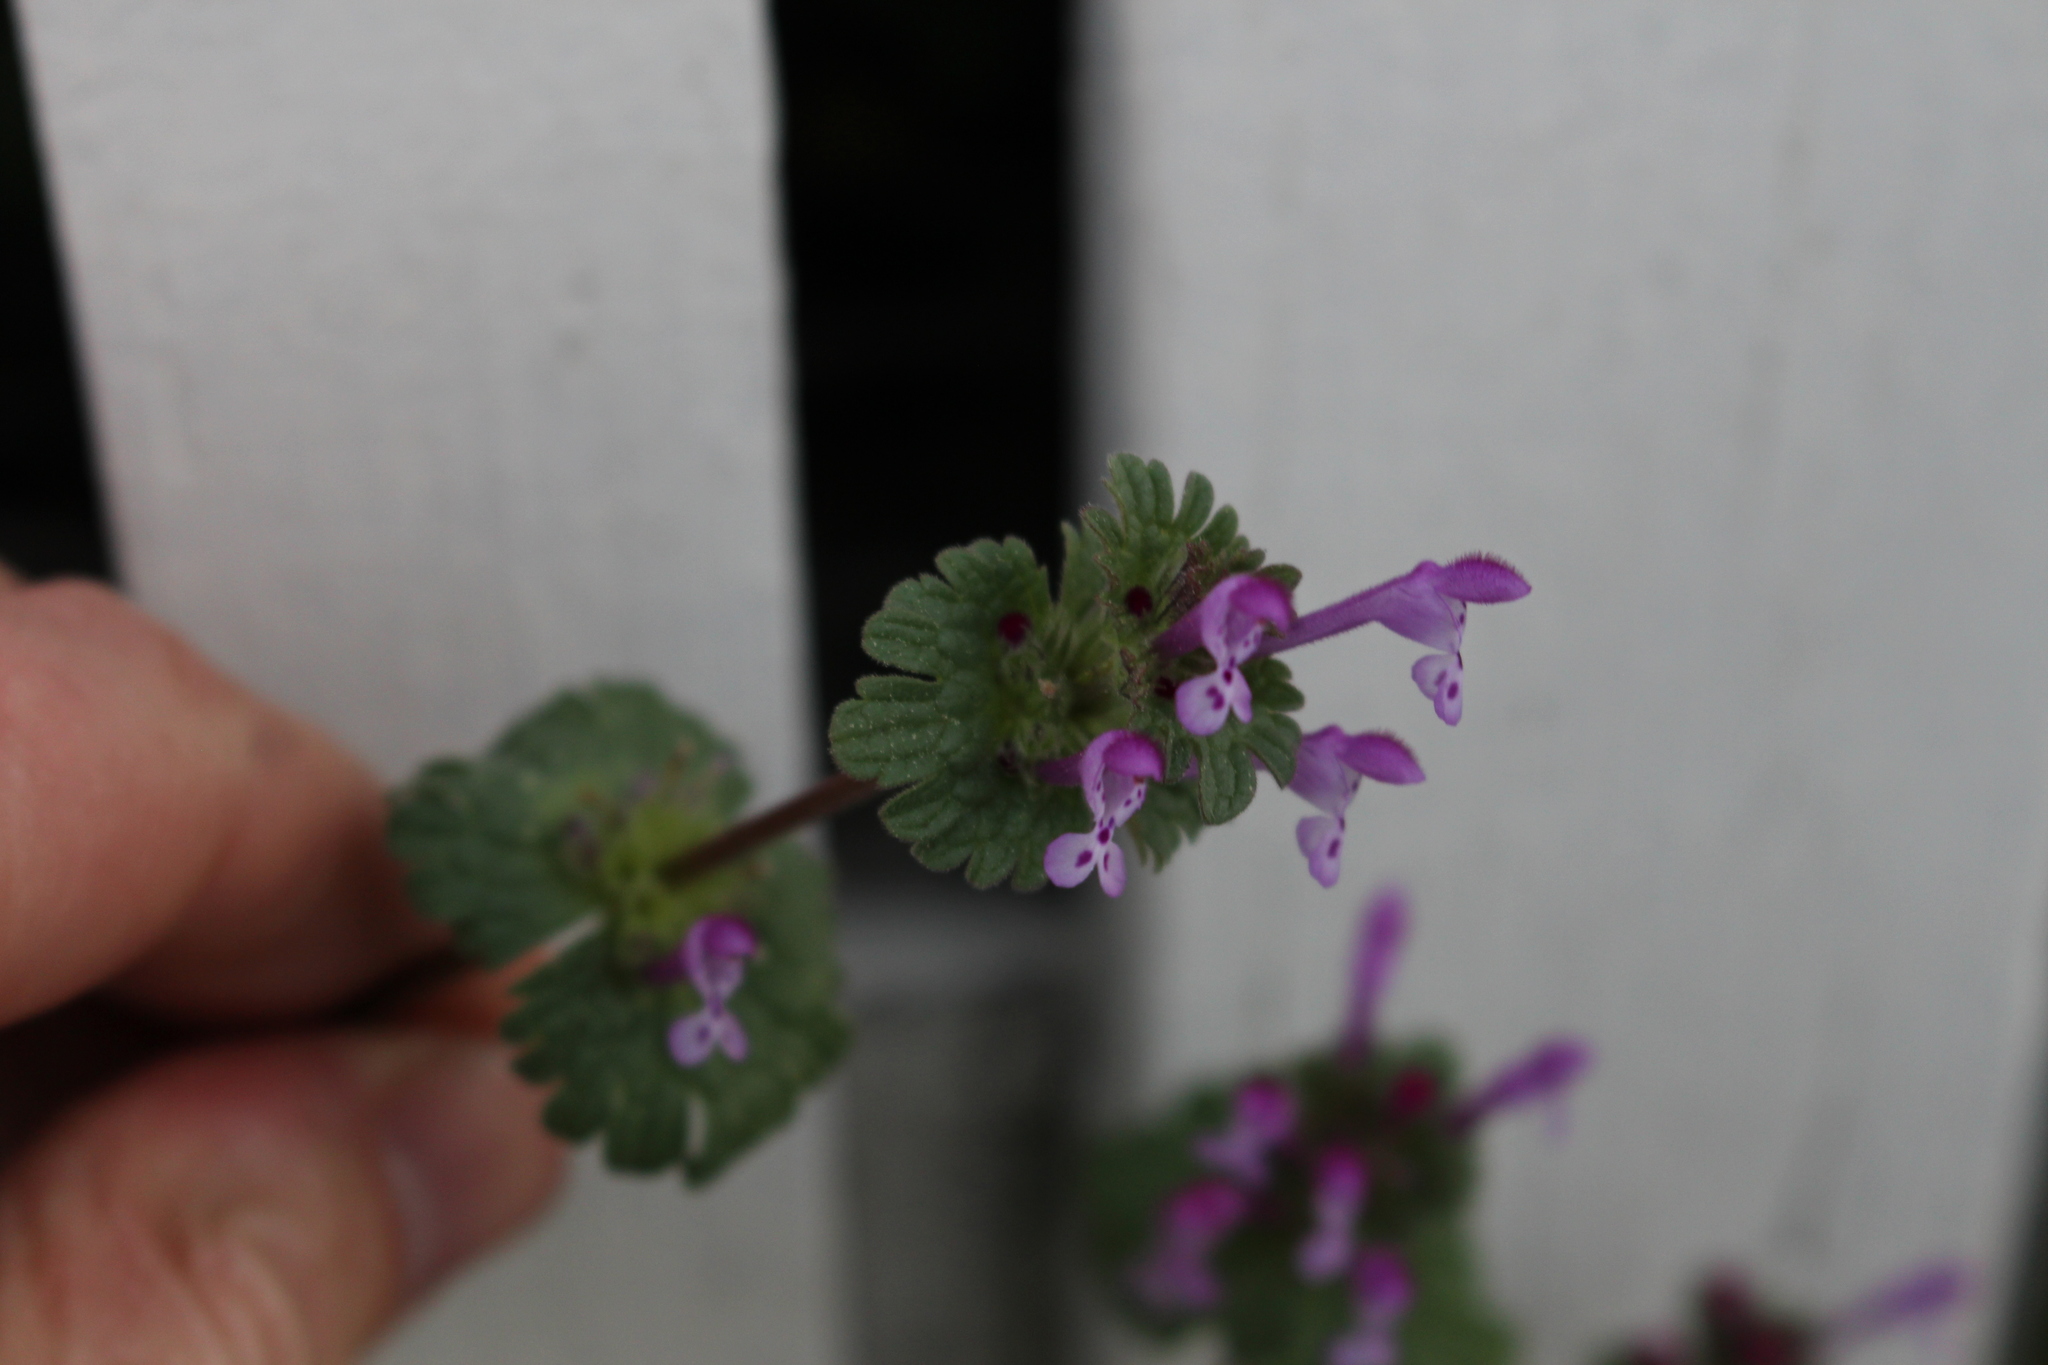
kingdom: Plantae
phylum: Tracheophyta
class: Magnoliopsida
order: Lamiales
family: Lamiaceae
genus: Lamium
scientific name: Lamium amplexicaule
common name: Henbit dead-nettle
